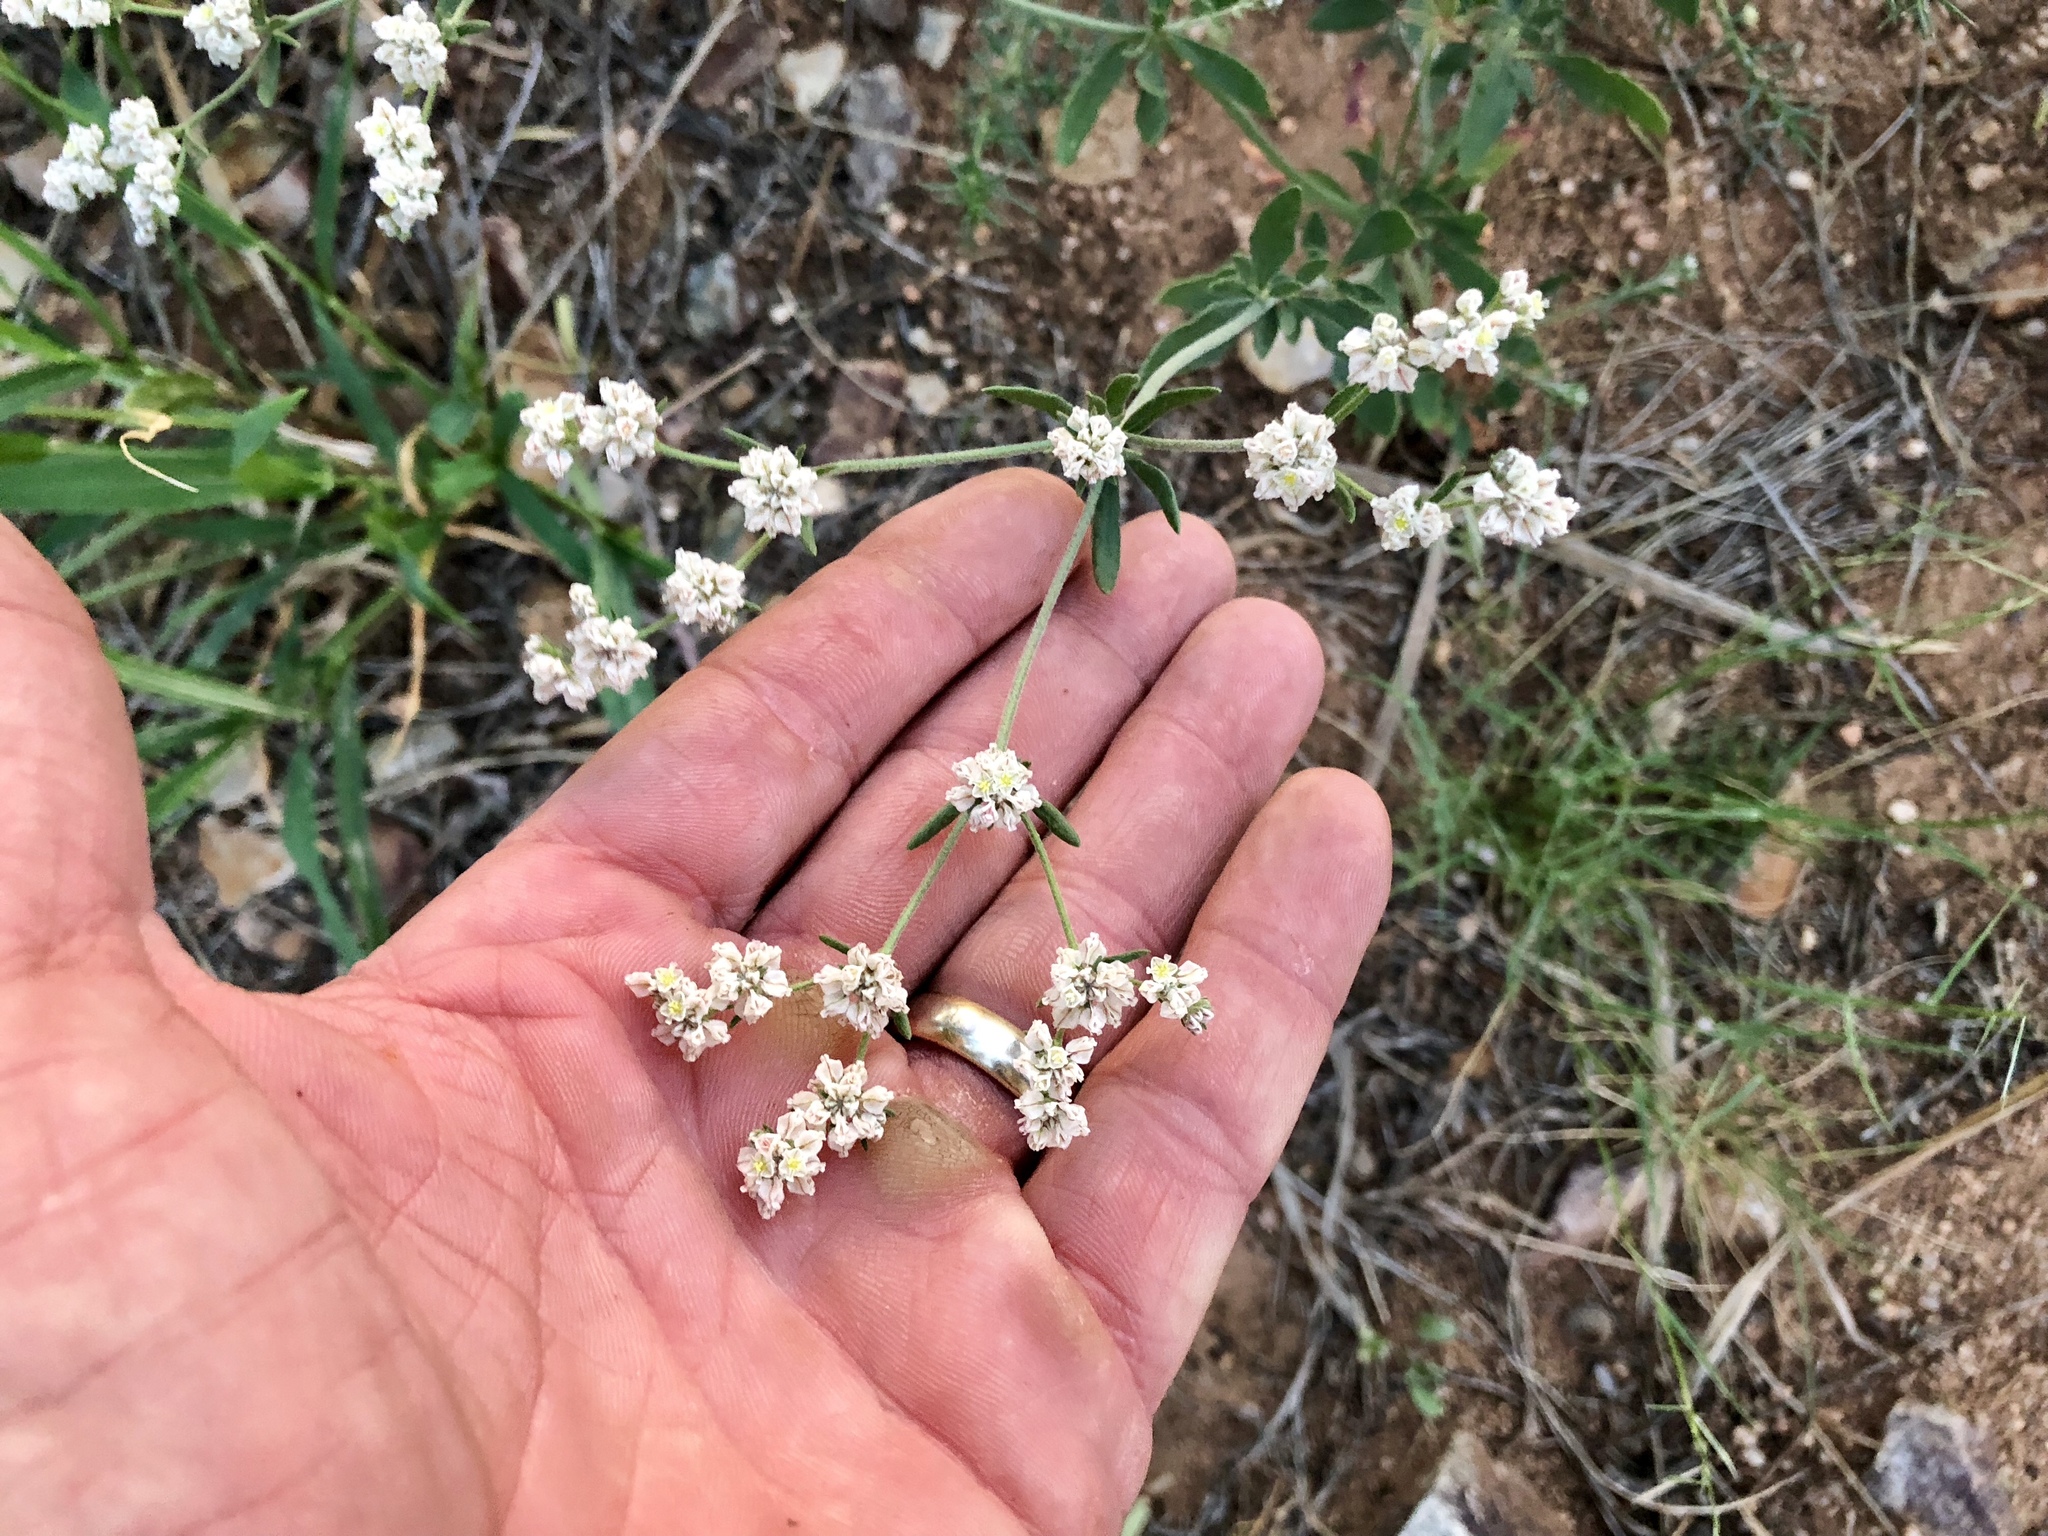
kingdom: Plantae
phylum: Tracheophyta
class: Magnoliopsida
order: Caryophyllales
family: Polygonaceae
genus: Eriogonum
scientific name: Eriogonum abertianum
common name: Abert's wild buckwheat
